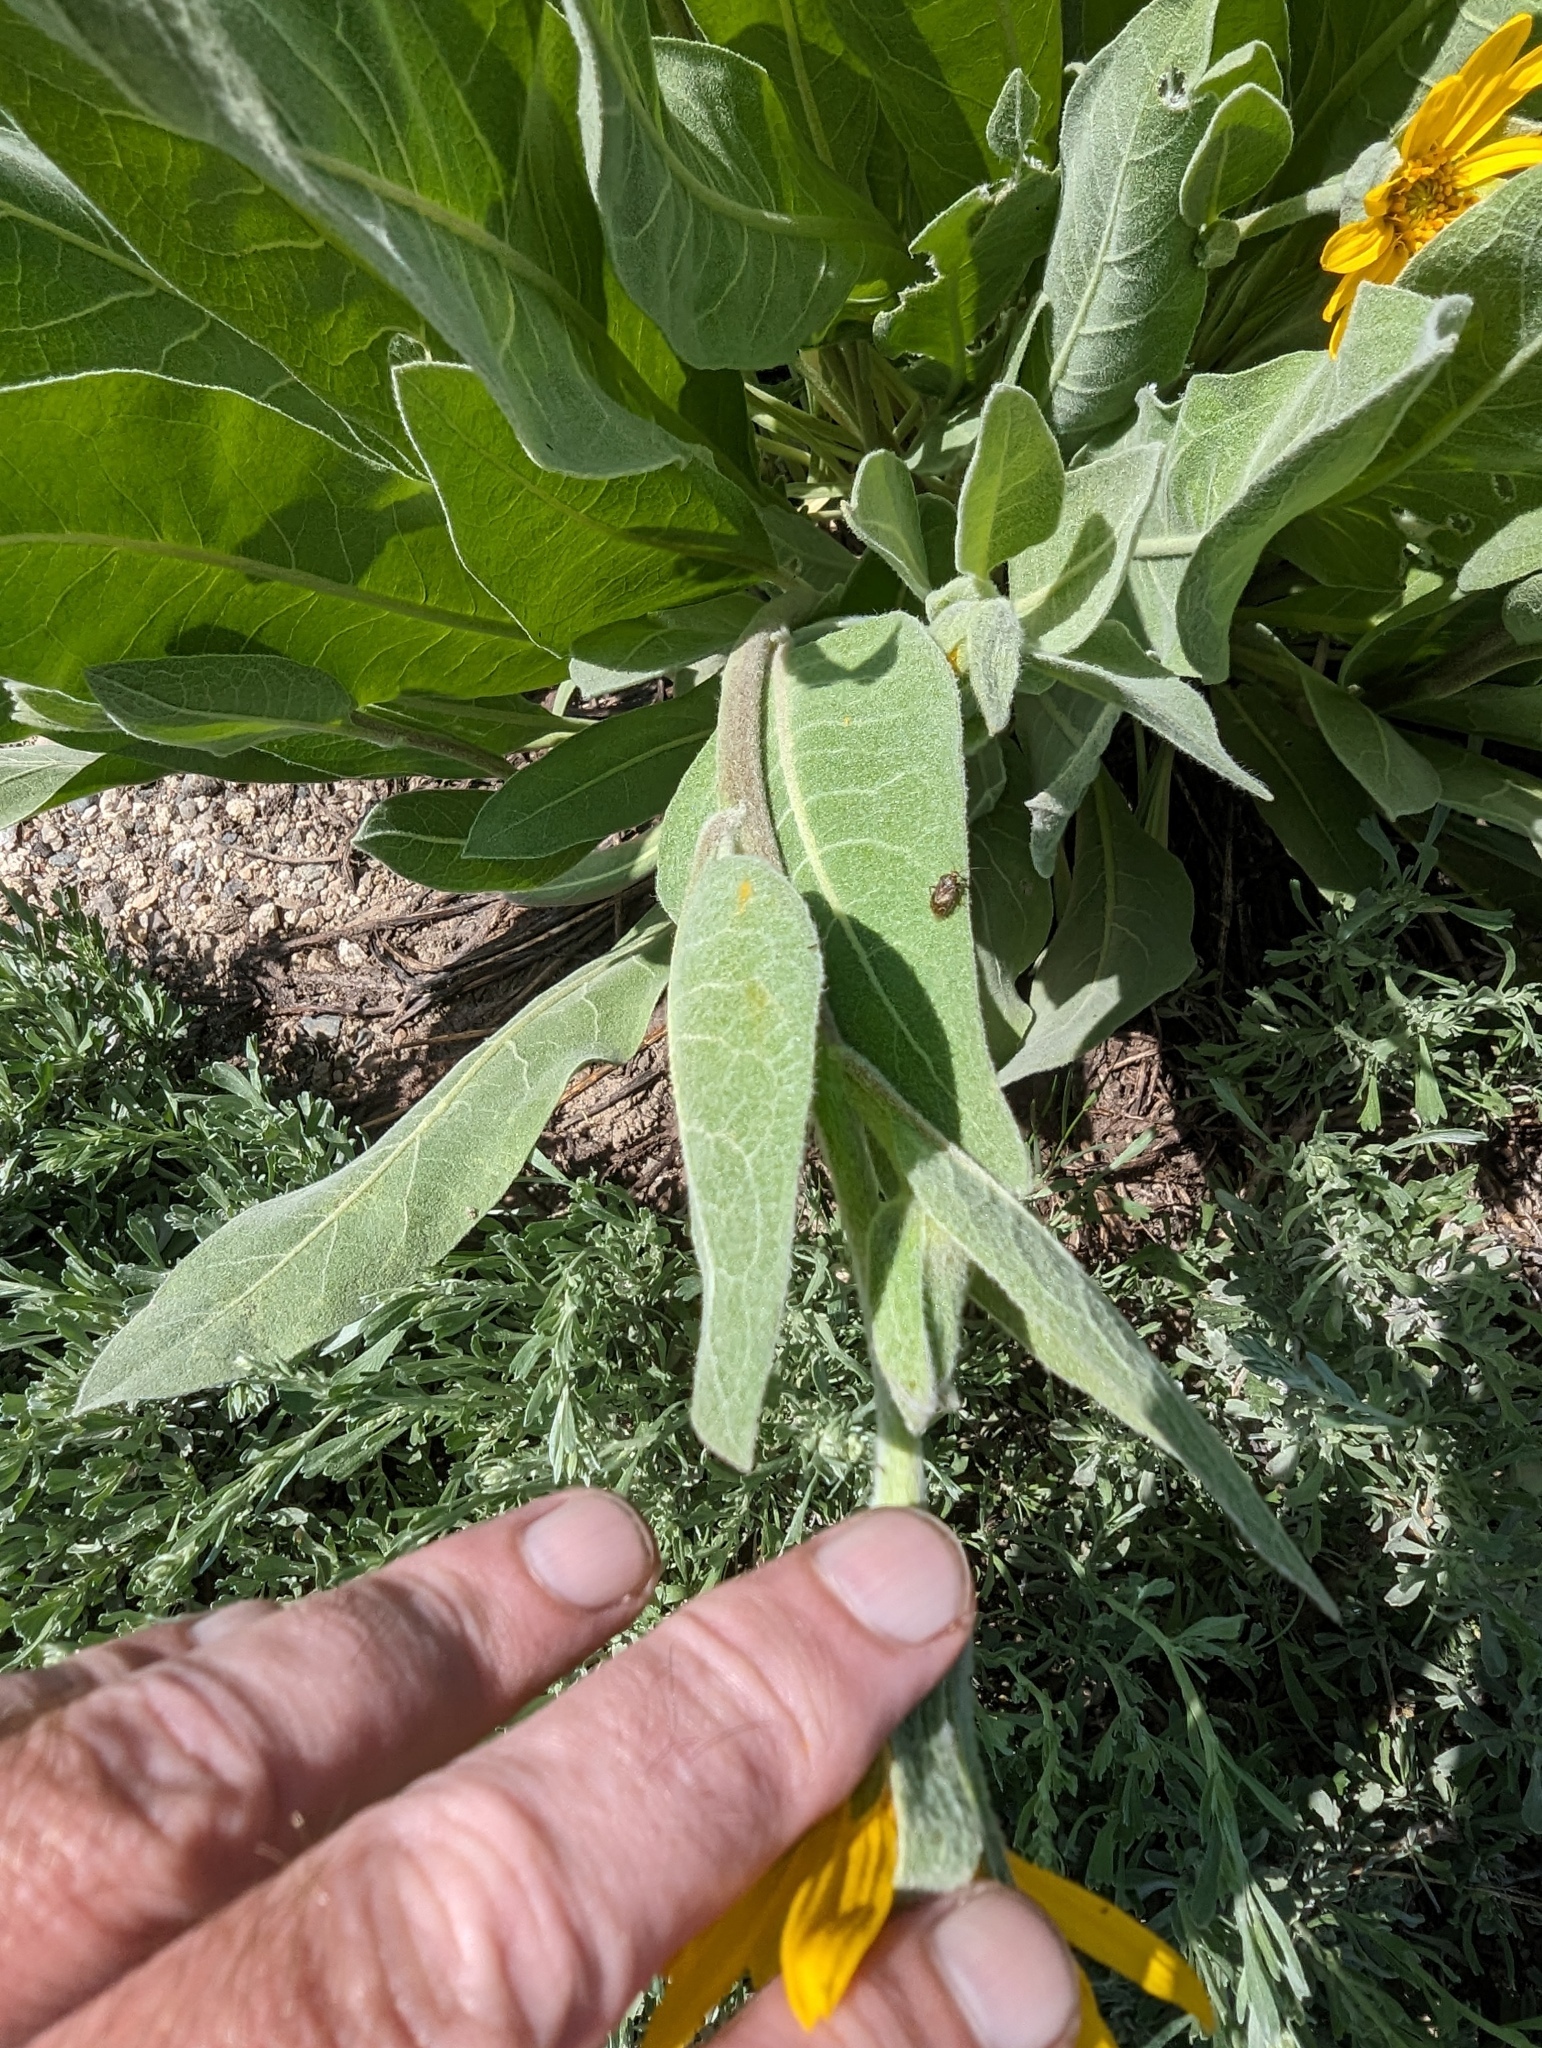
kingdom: Plantae
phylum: Tracheophyta
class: Magnoliopsida
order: Asterales
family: Asteraceae
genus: Wyethia
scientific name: Wyethia mollis
